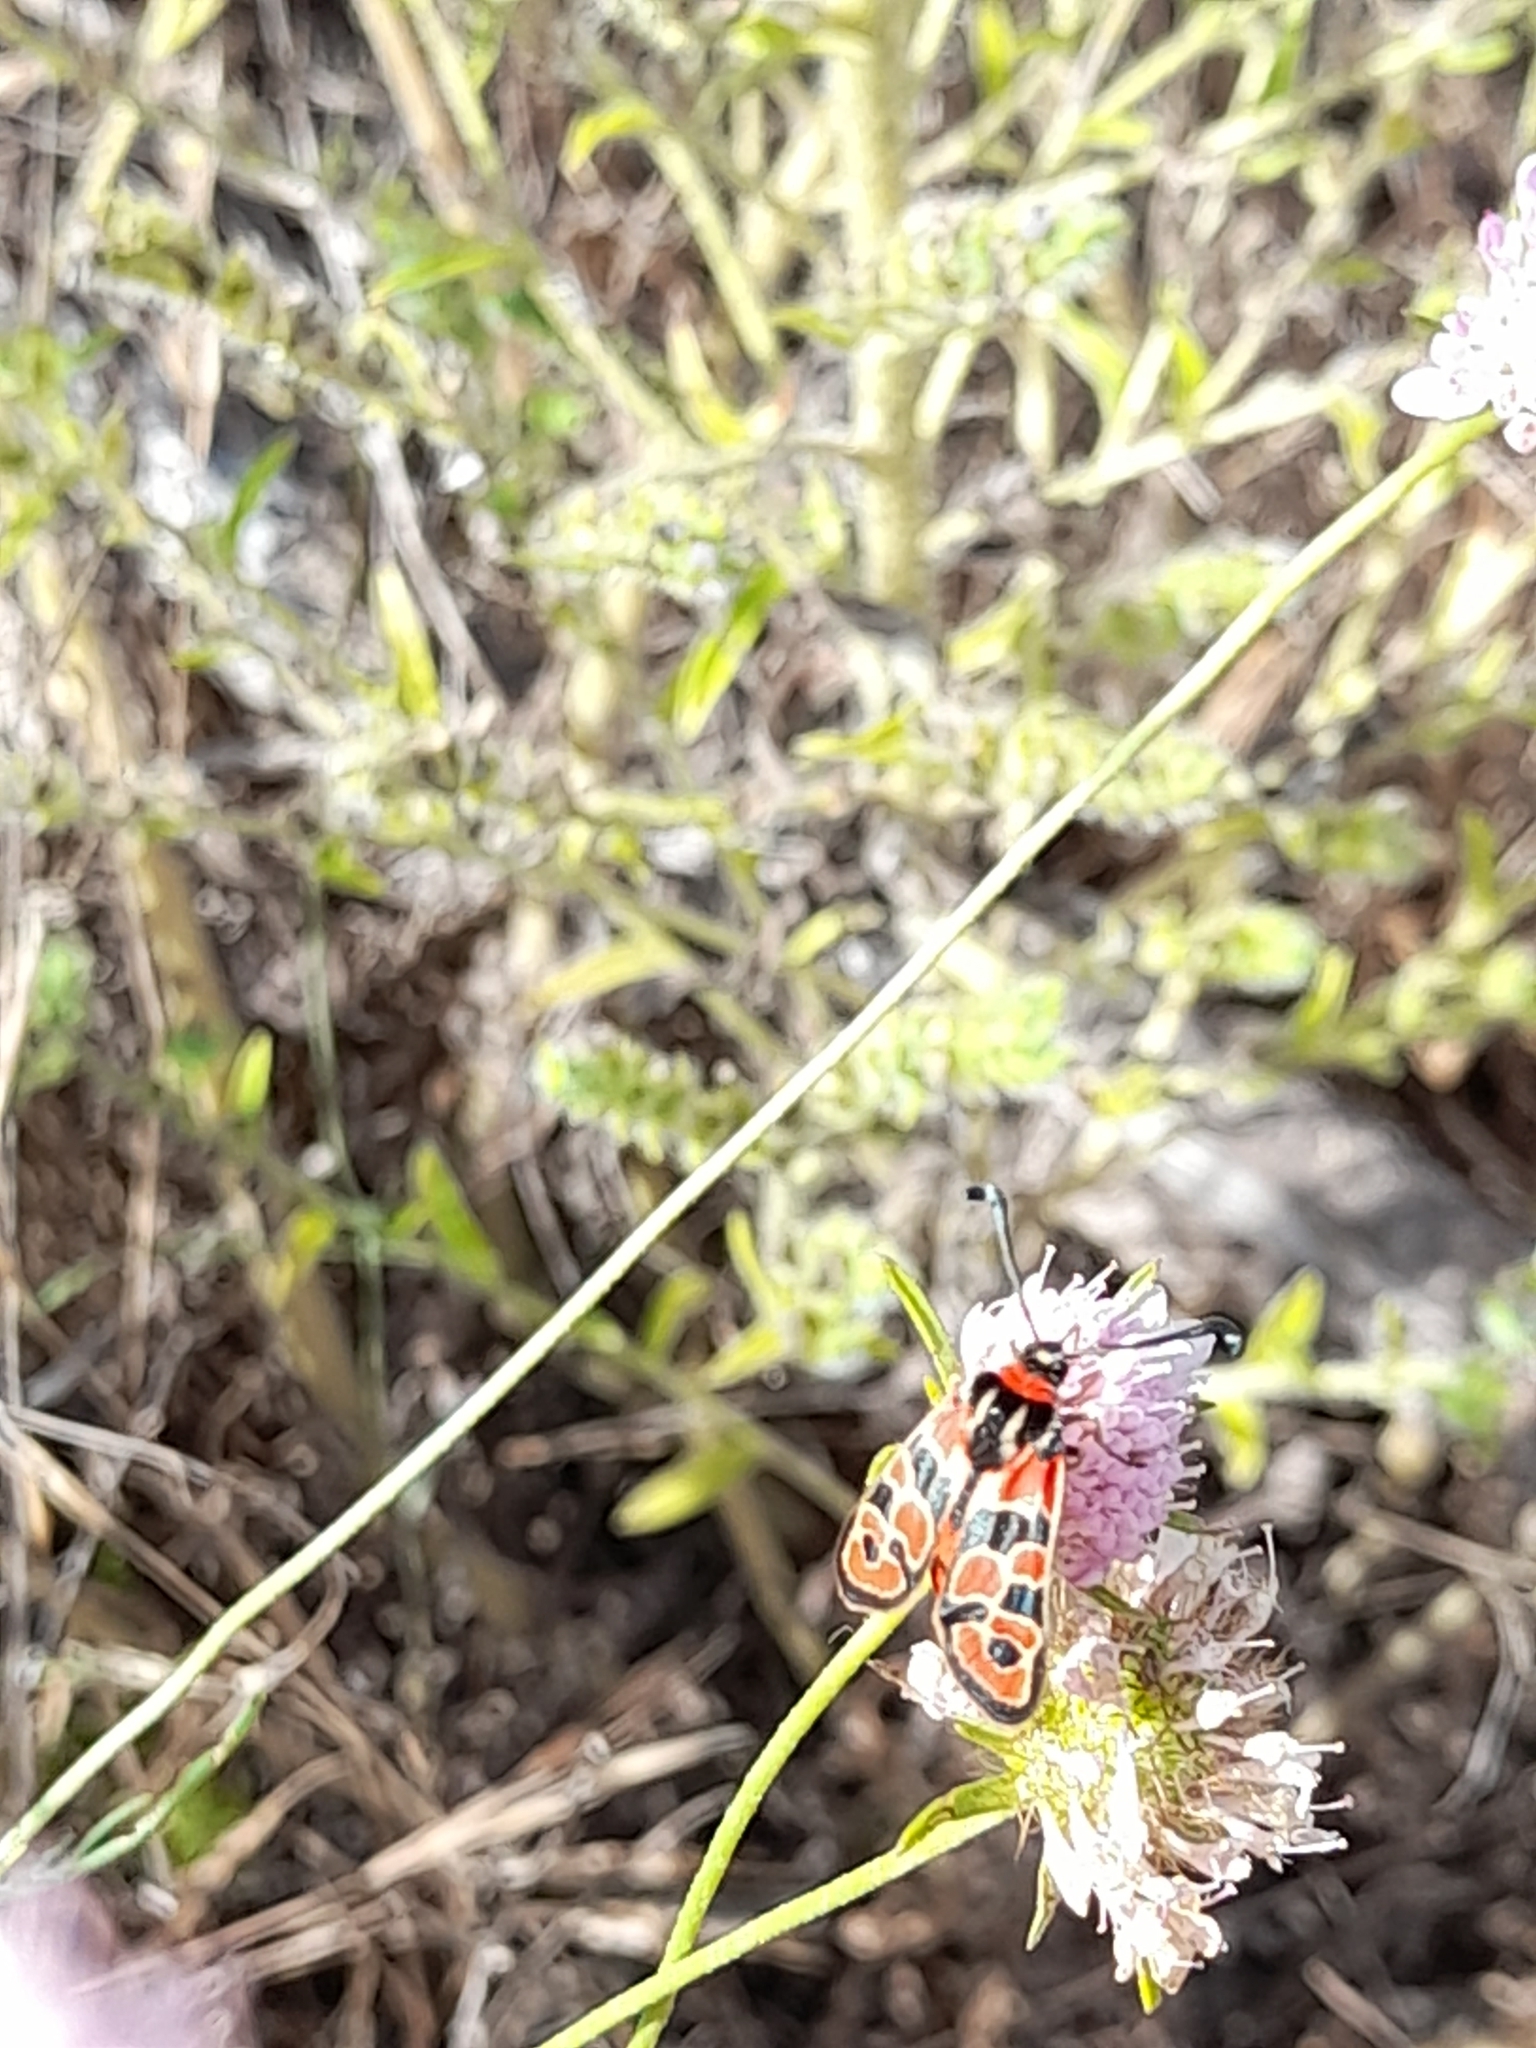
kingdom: Animalia
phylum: Arthropoda
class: Insecta
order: Lepidoptera
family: Zygaenidae
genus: Zygaena
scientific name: Zygaena fausta
